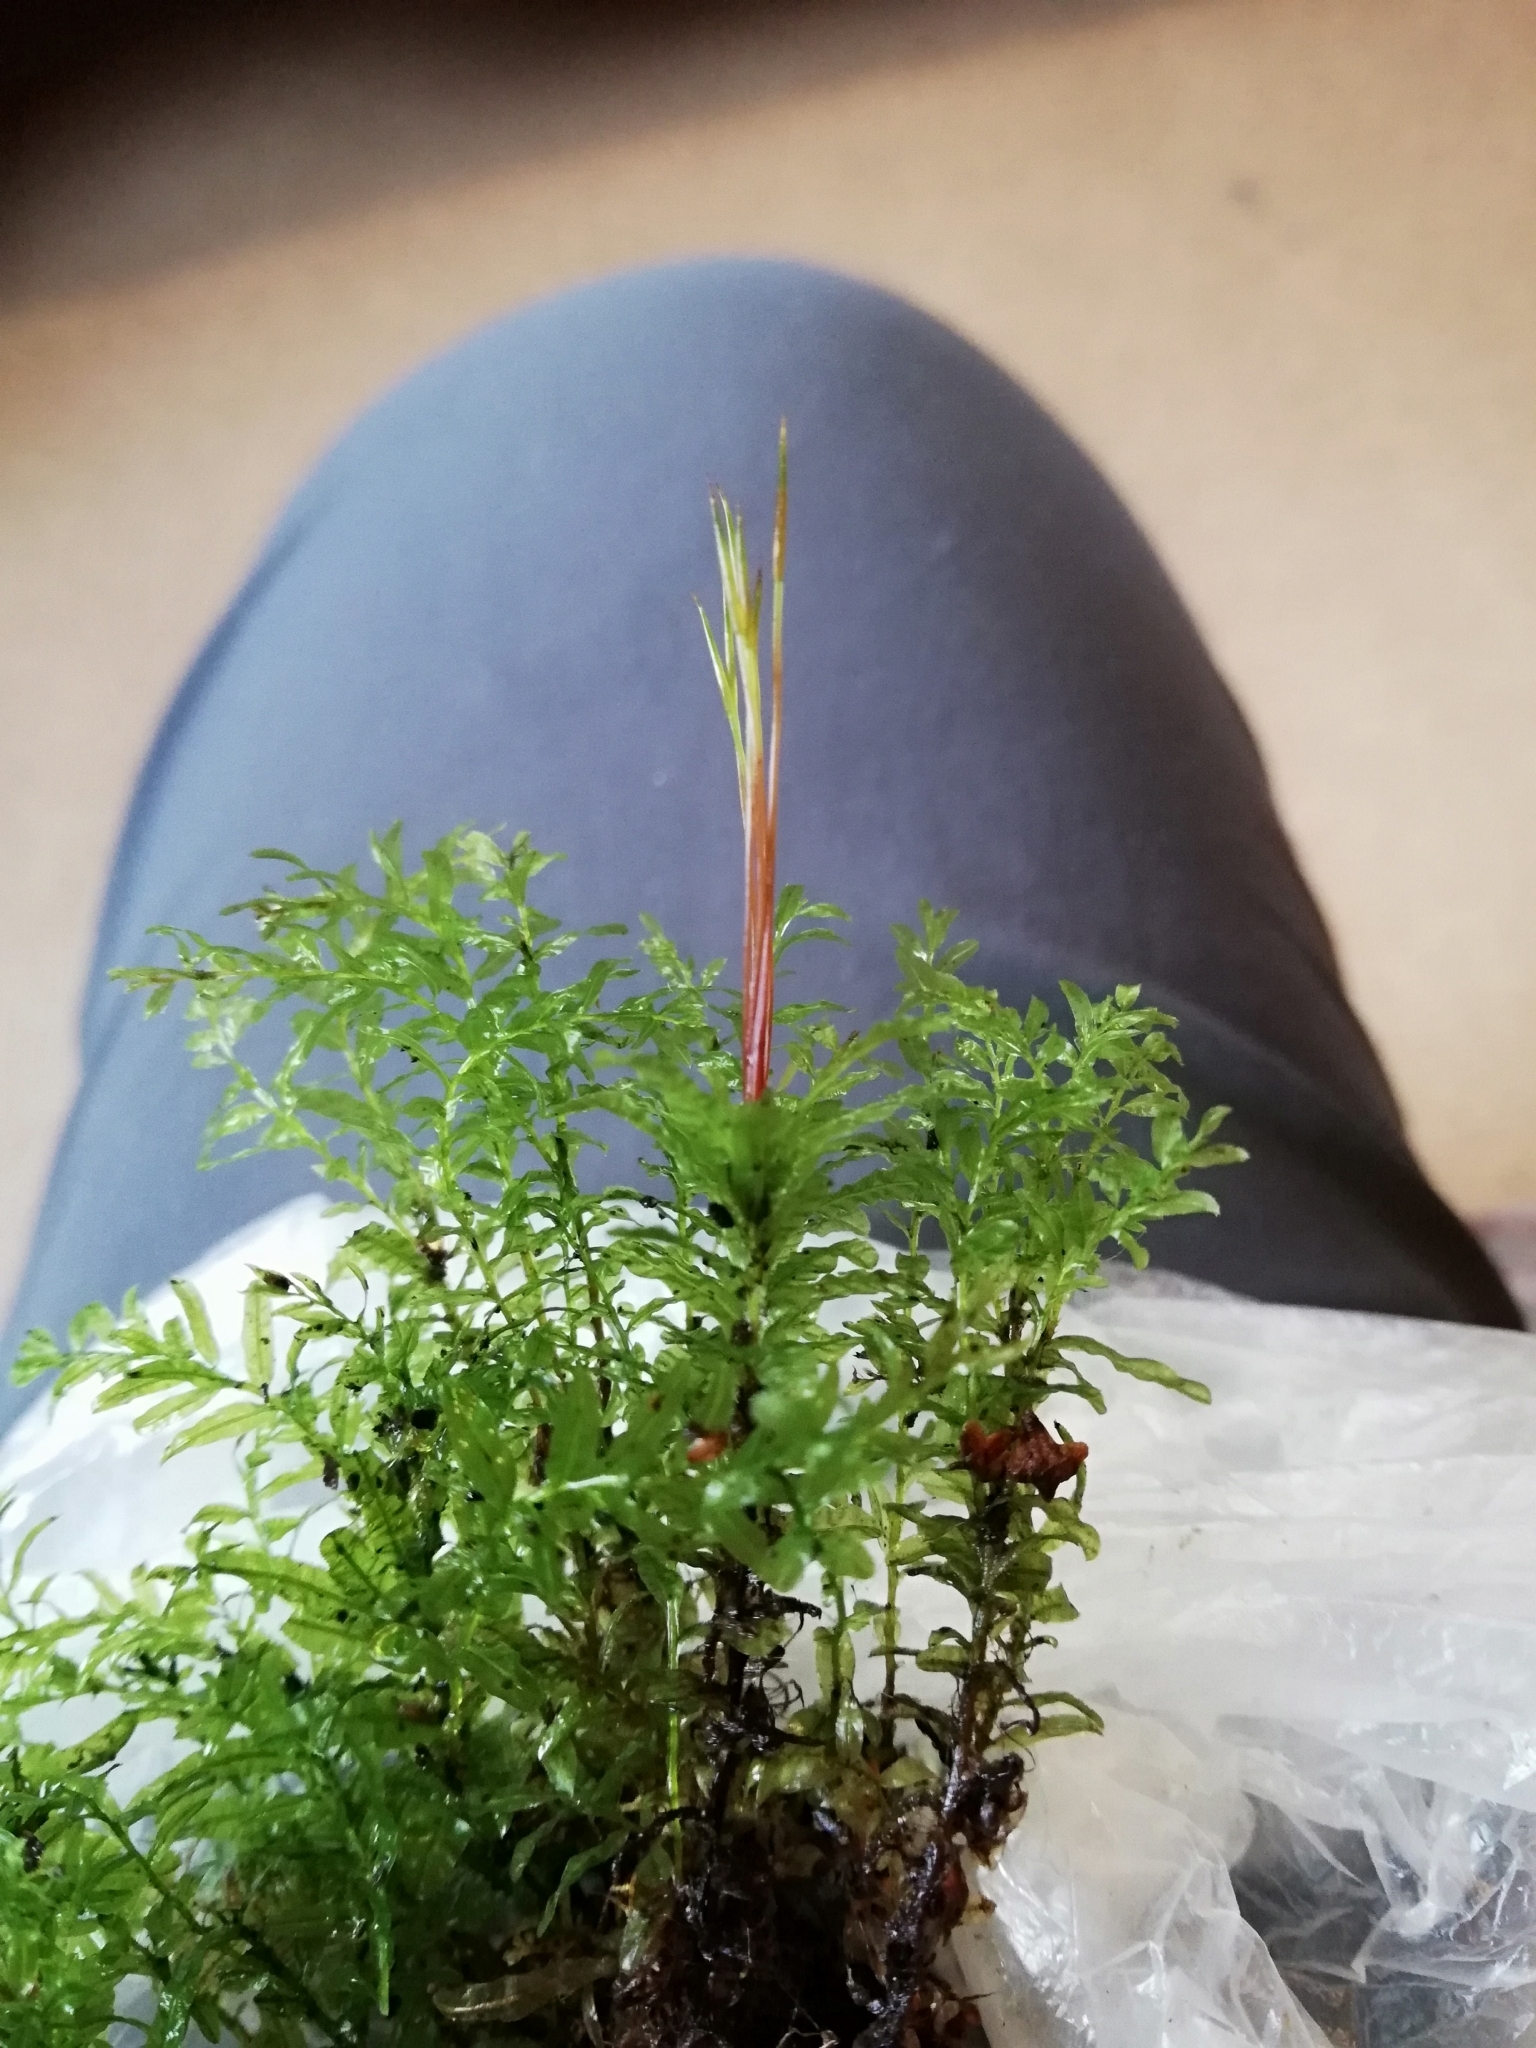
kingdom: Plantae
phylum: Bryophyta
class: Bryopsida
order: Bryales
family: Mniaceae
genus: Plagiomnium
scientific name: Plagiomnium undulatum
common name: Hart's-tongue thyme-moss
